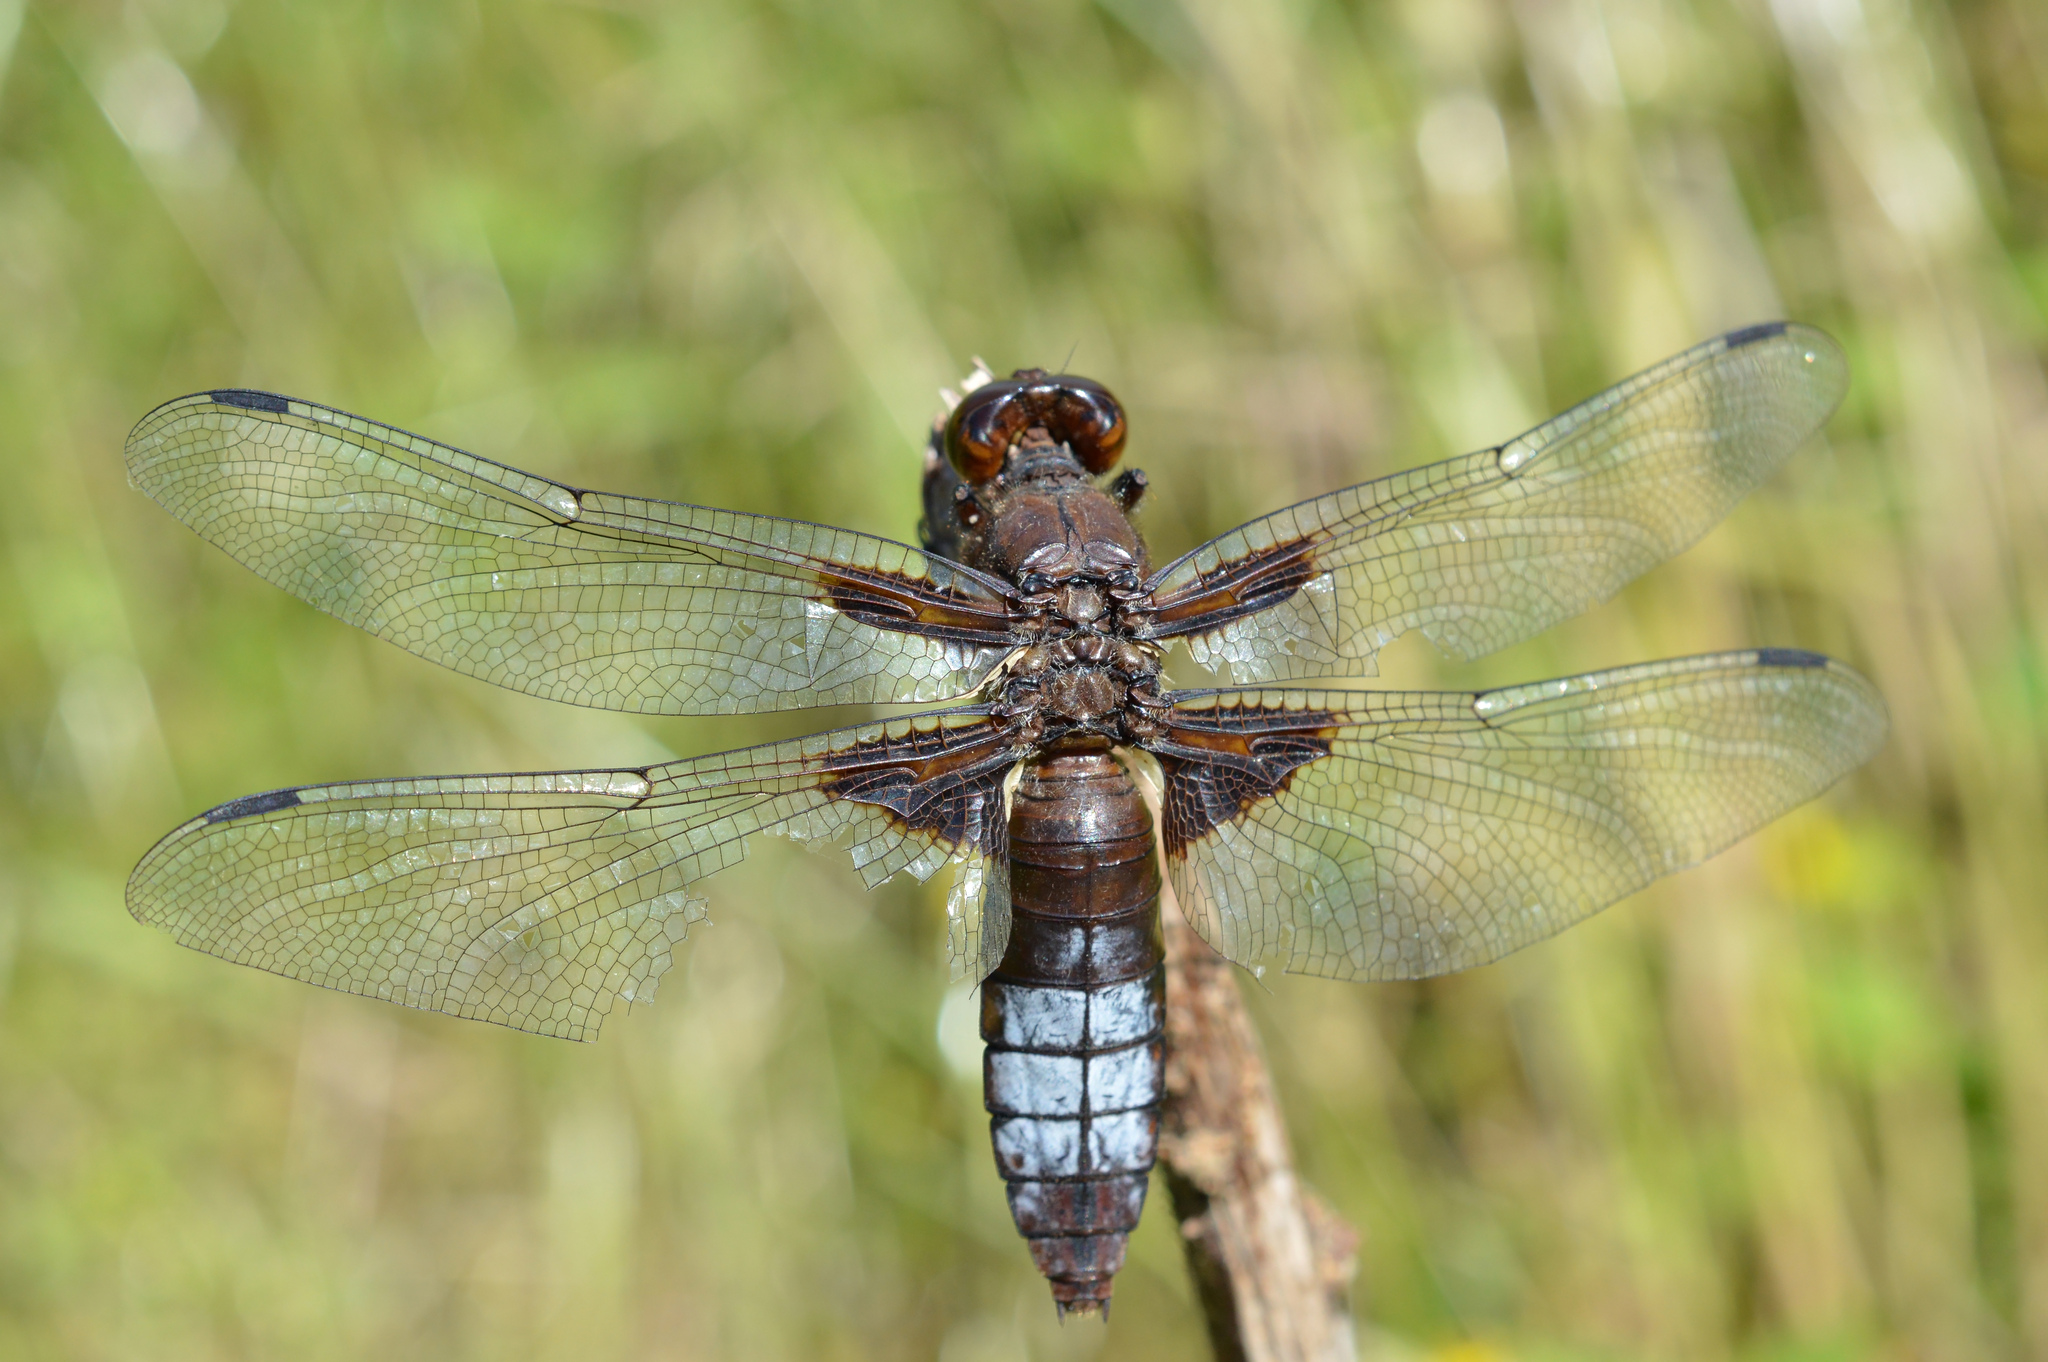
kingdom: Animalia
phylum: Arthropoda
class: Insecta
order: Odonata
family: Libellulidae
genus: Libellula
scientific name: Libellula depressa
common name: Broad-bodied chaser
